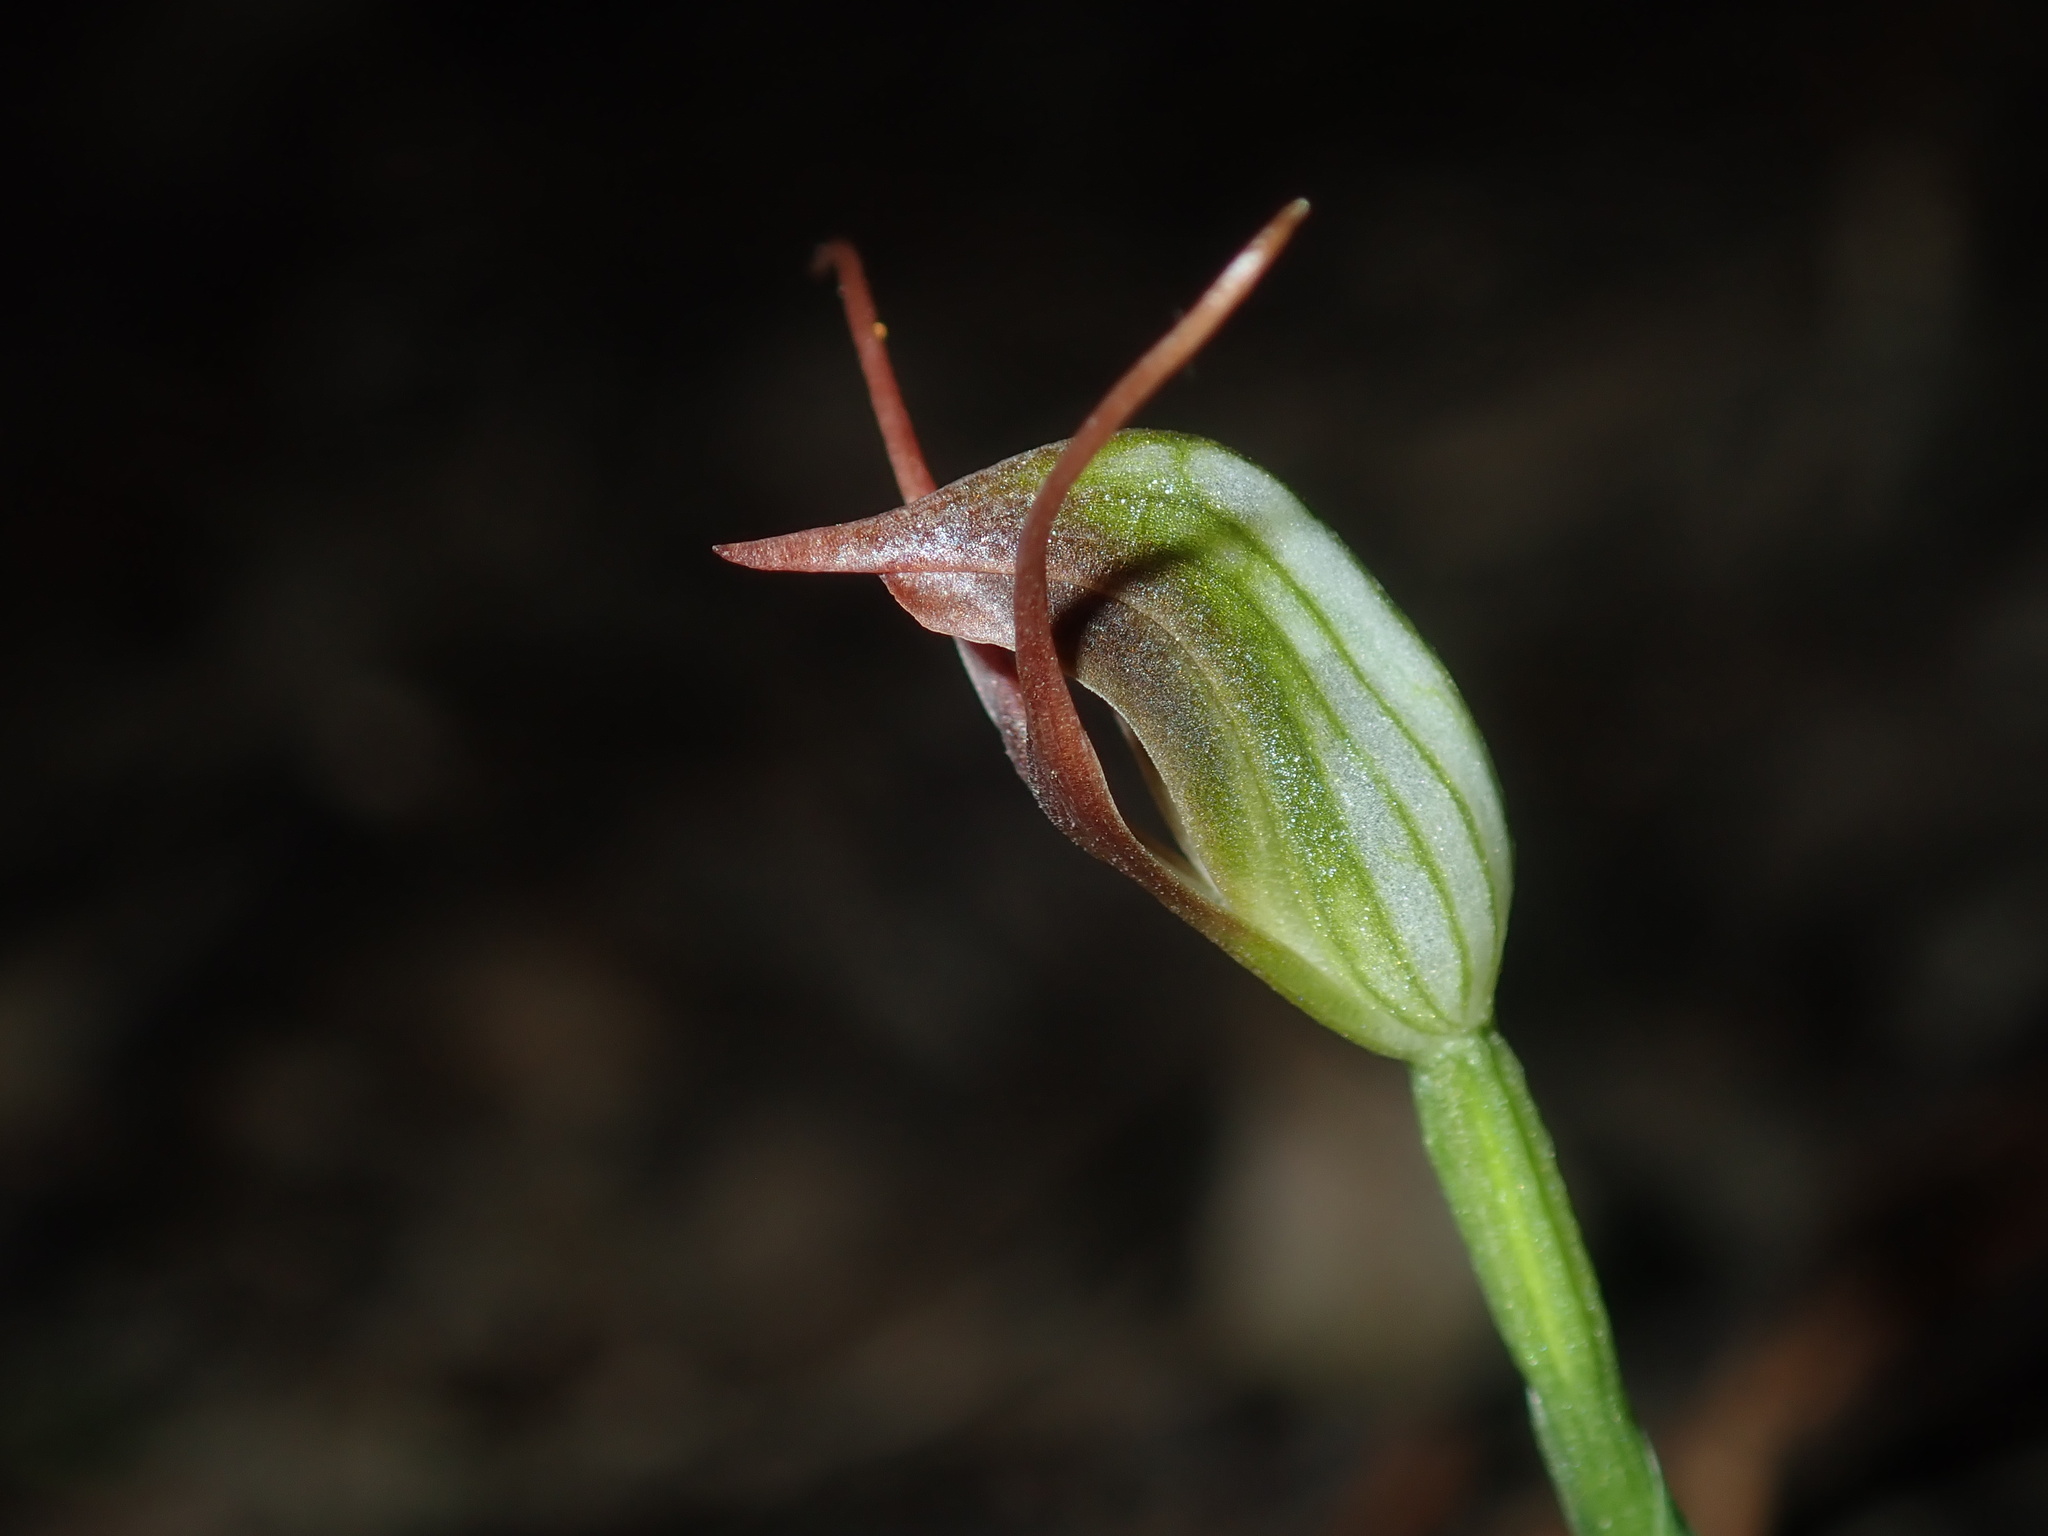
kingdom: Plantae
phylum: Tracheophyta
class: Liliopsida
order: Asparagales
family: Orchidaceae
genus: Pterostylis
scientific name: Pterostylis oblonga
